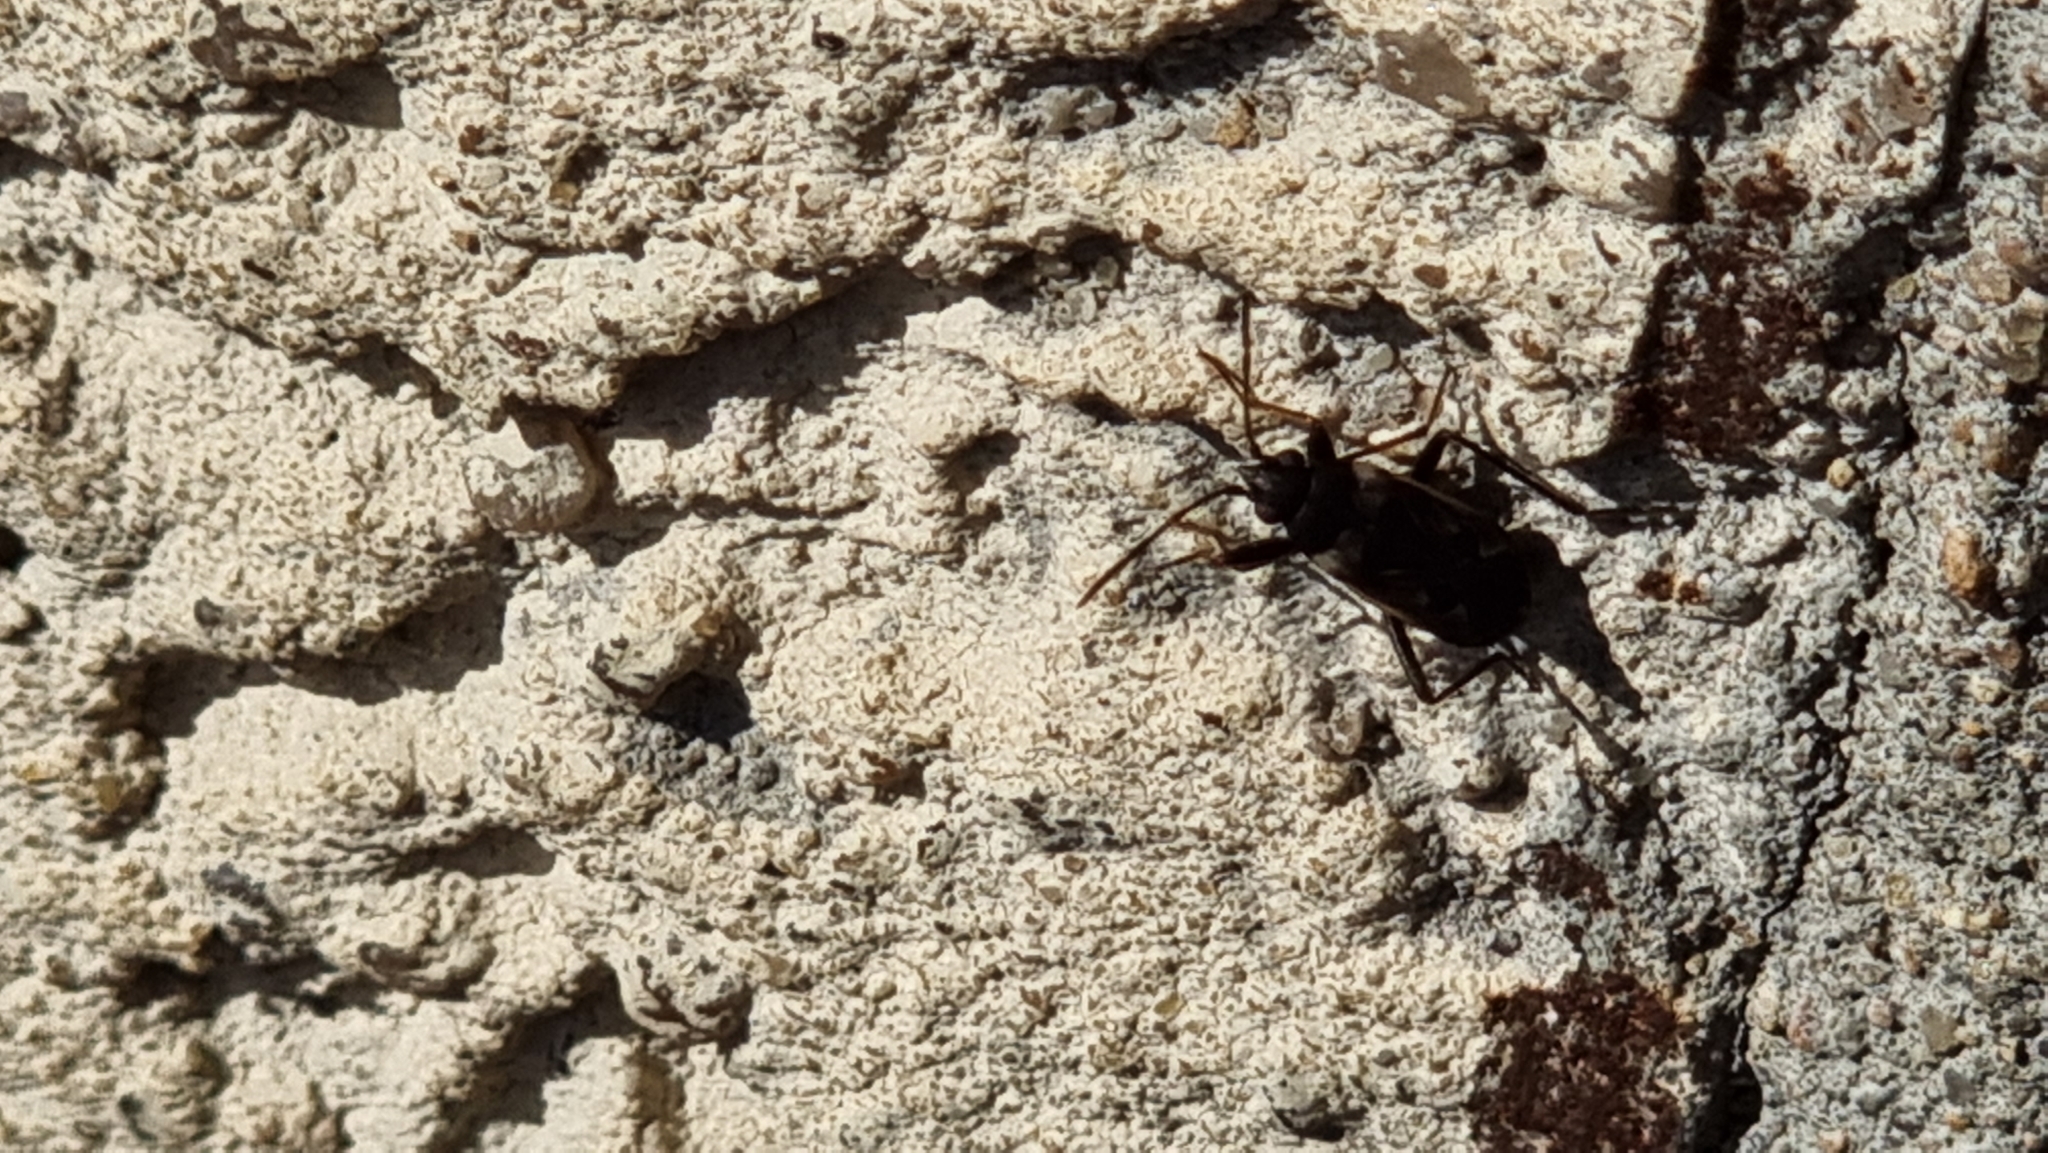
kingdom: Animalia
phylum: Arthropoda
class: Insecta
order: Hemiptera
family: Rhyparochromidae
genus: Rhyparochromus
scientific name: Rhyparochromus vulgaris
